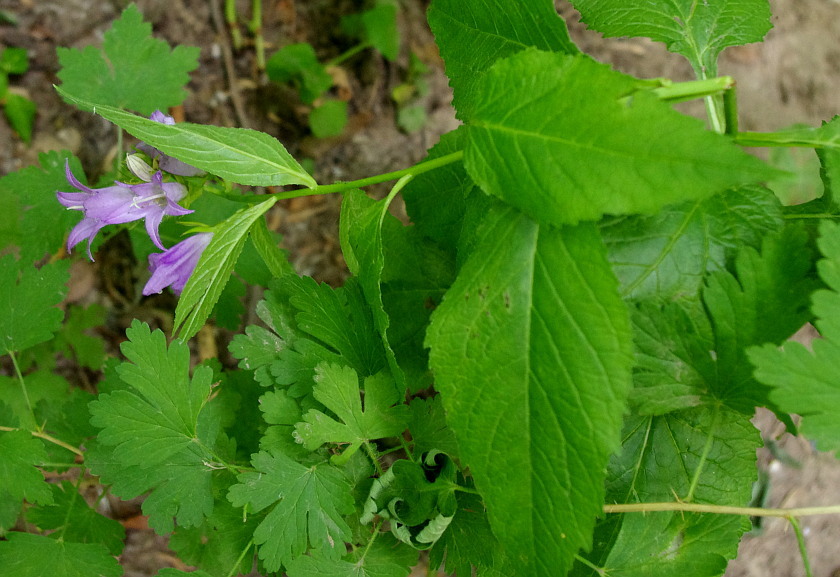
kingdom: Plantae
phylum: Tracheophyta
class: Magnoliopsida
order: Asterales
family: Campanulaceae
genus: Campanula
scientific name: Campanula latifolia
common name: Giant bellflower
